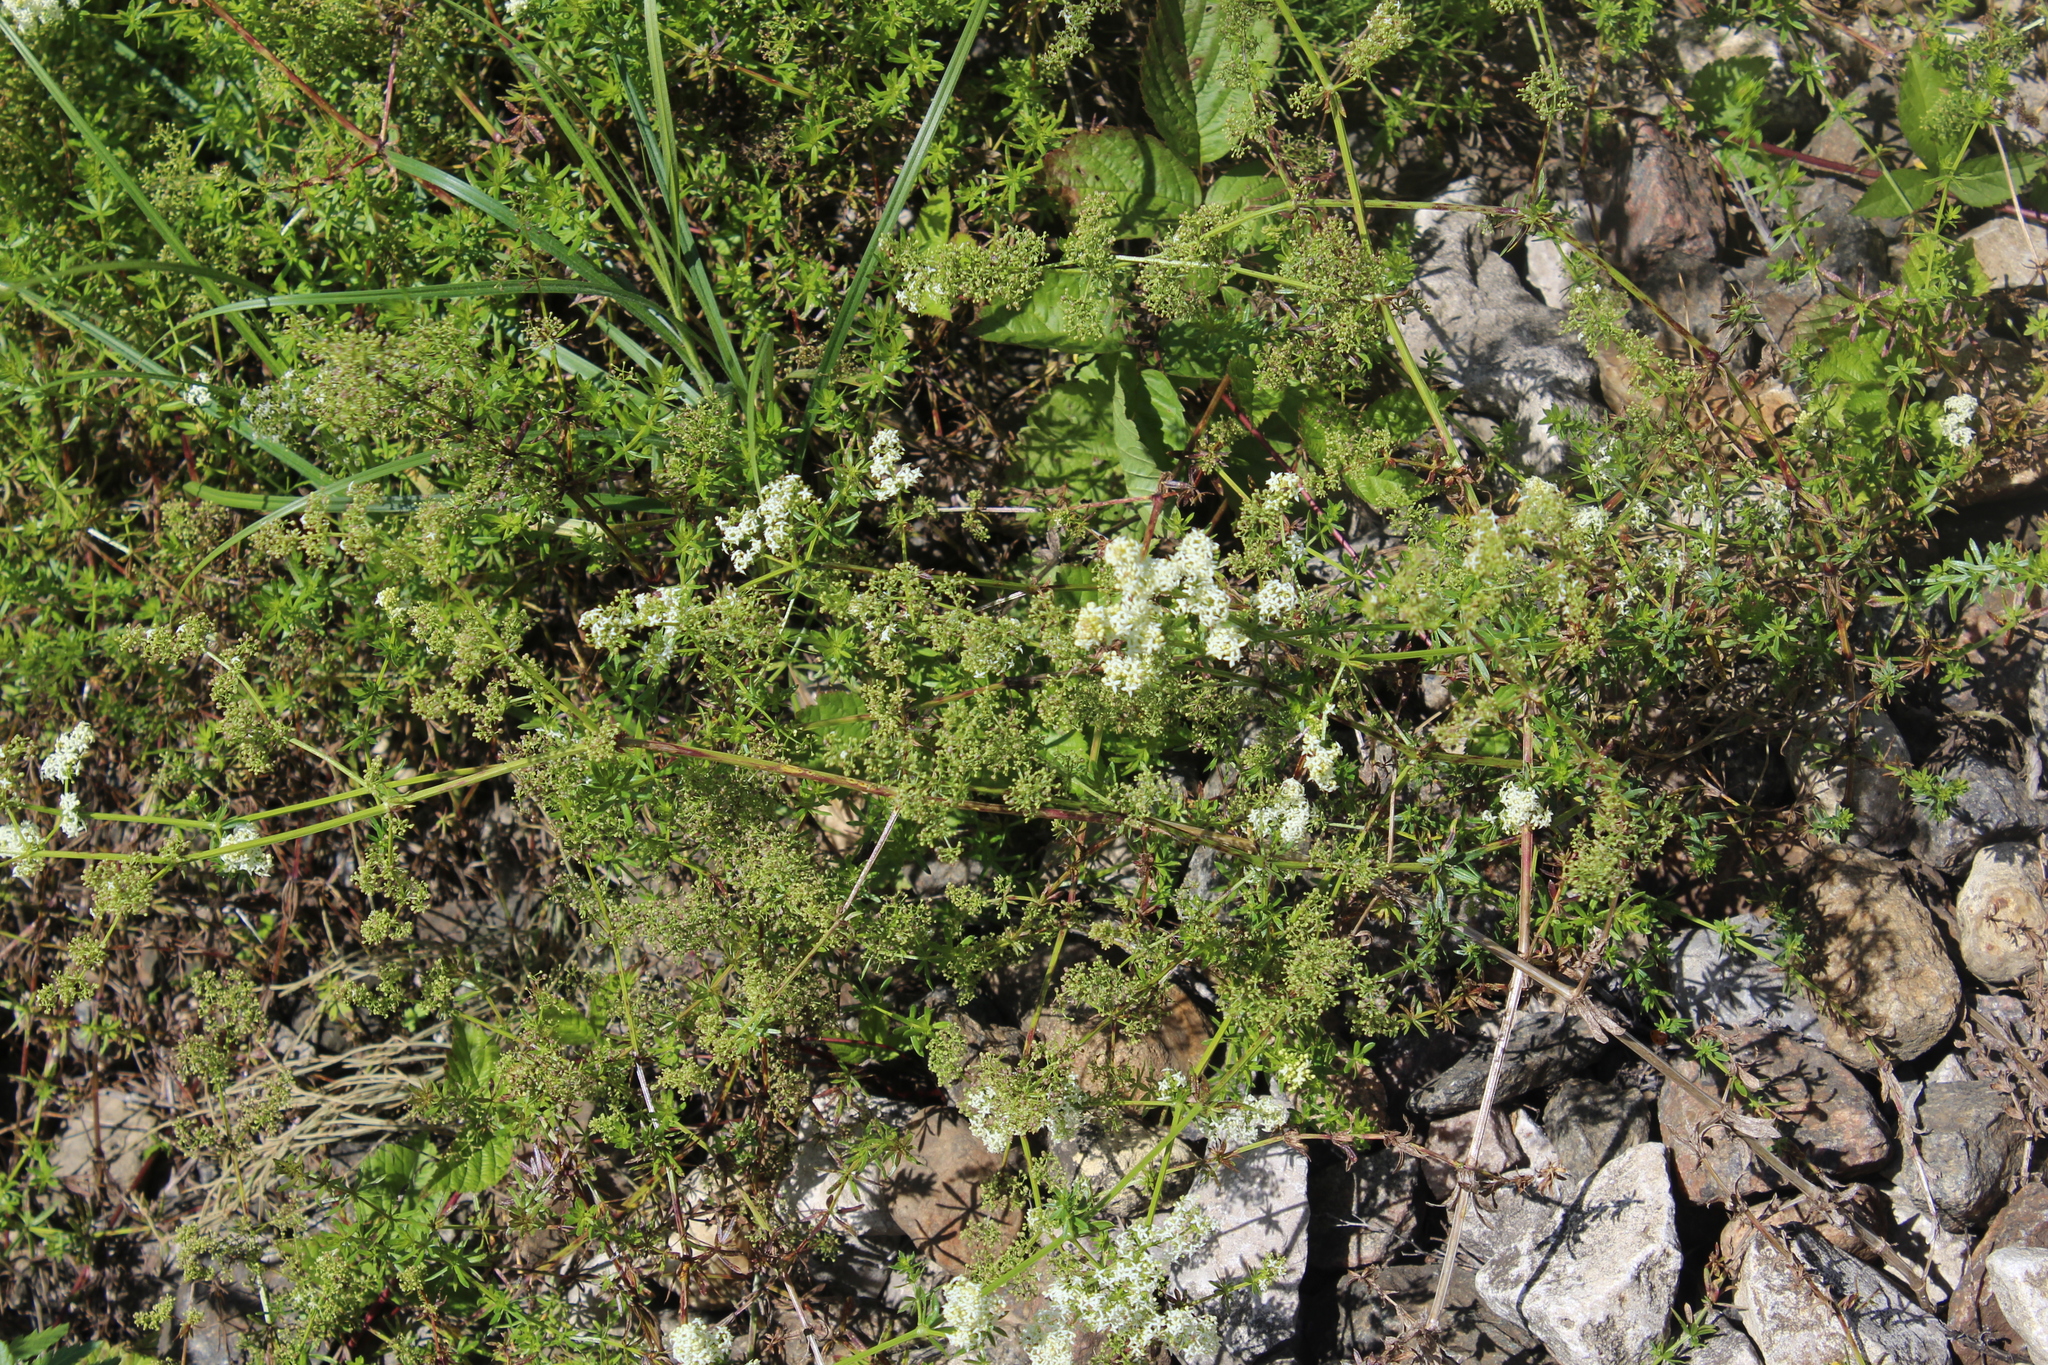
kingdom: Plantae
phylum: Tracheophyta
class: Magnoliopsida
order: Gentianales
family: Rubiaceae
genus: Galium
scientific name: Galium mollugo
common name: Hedge bedstraw
